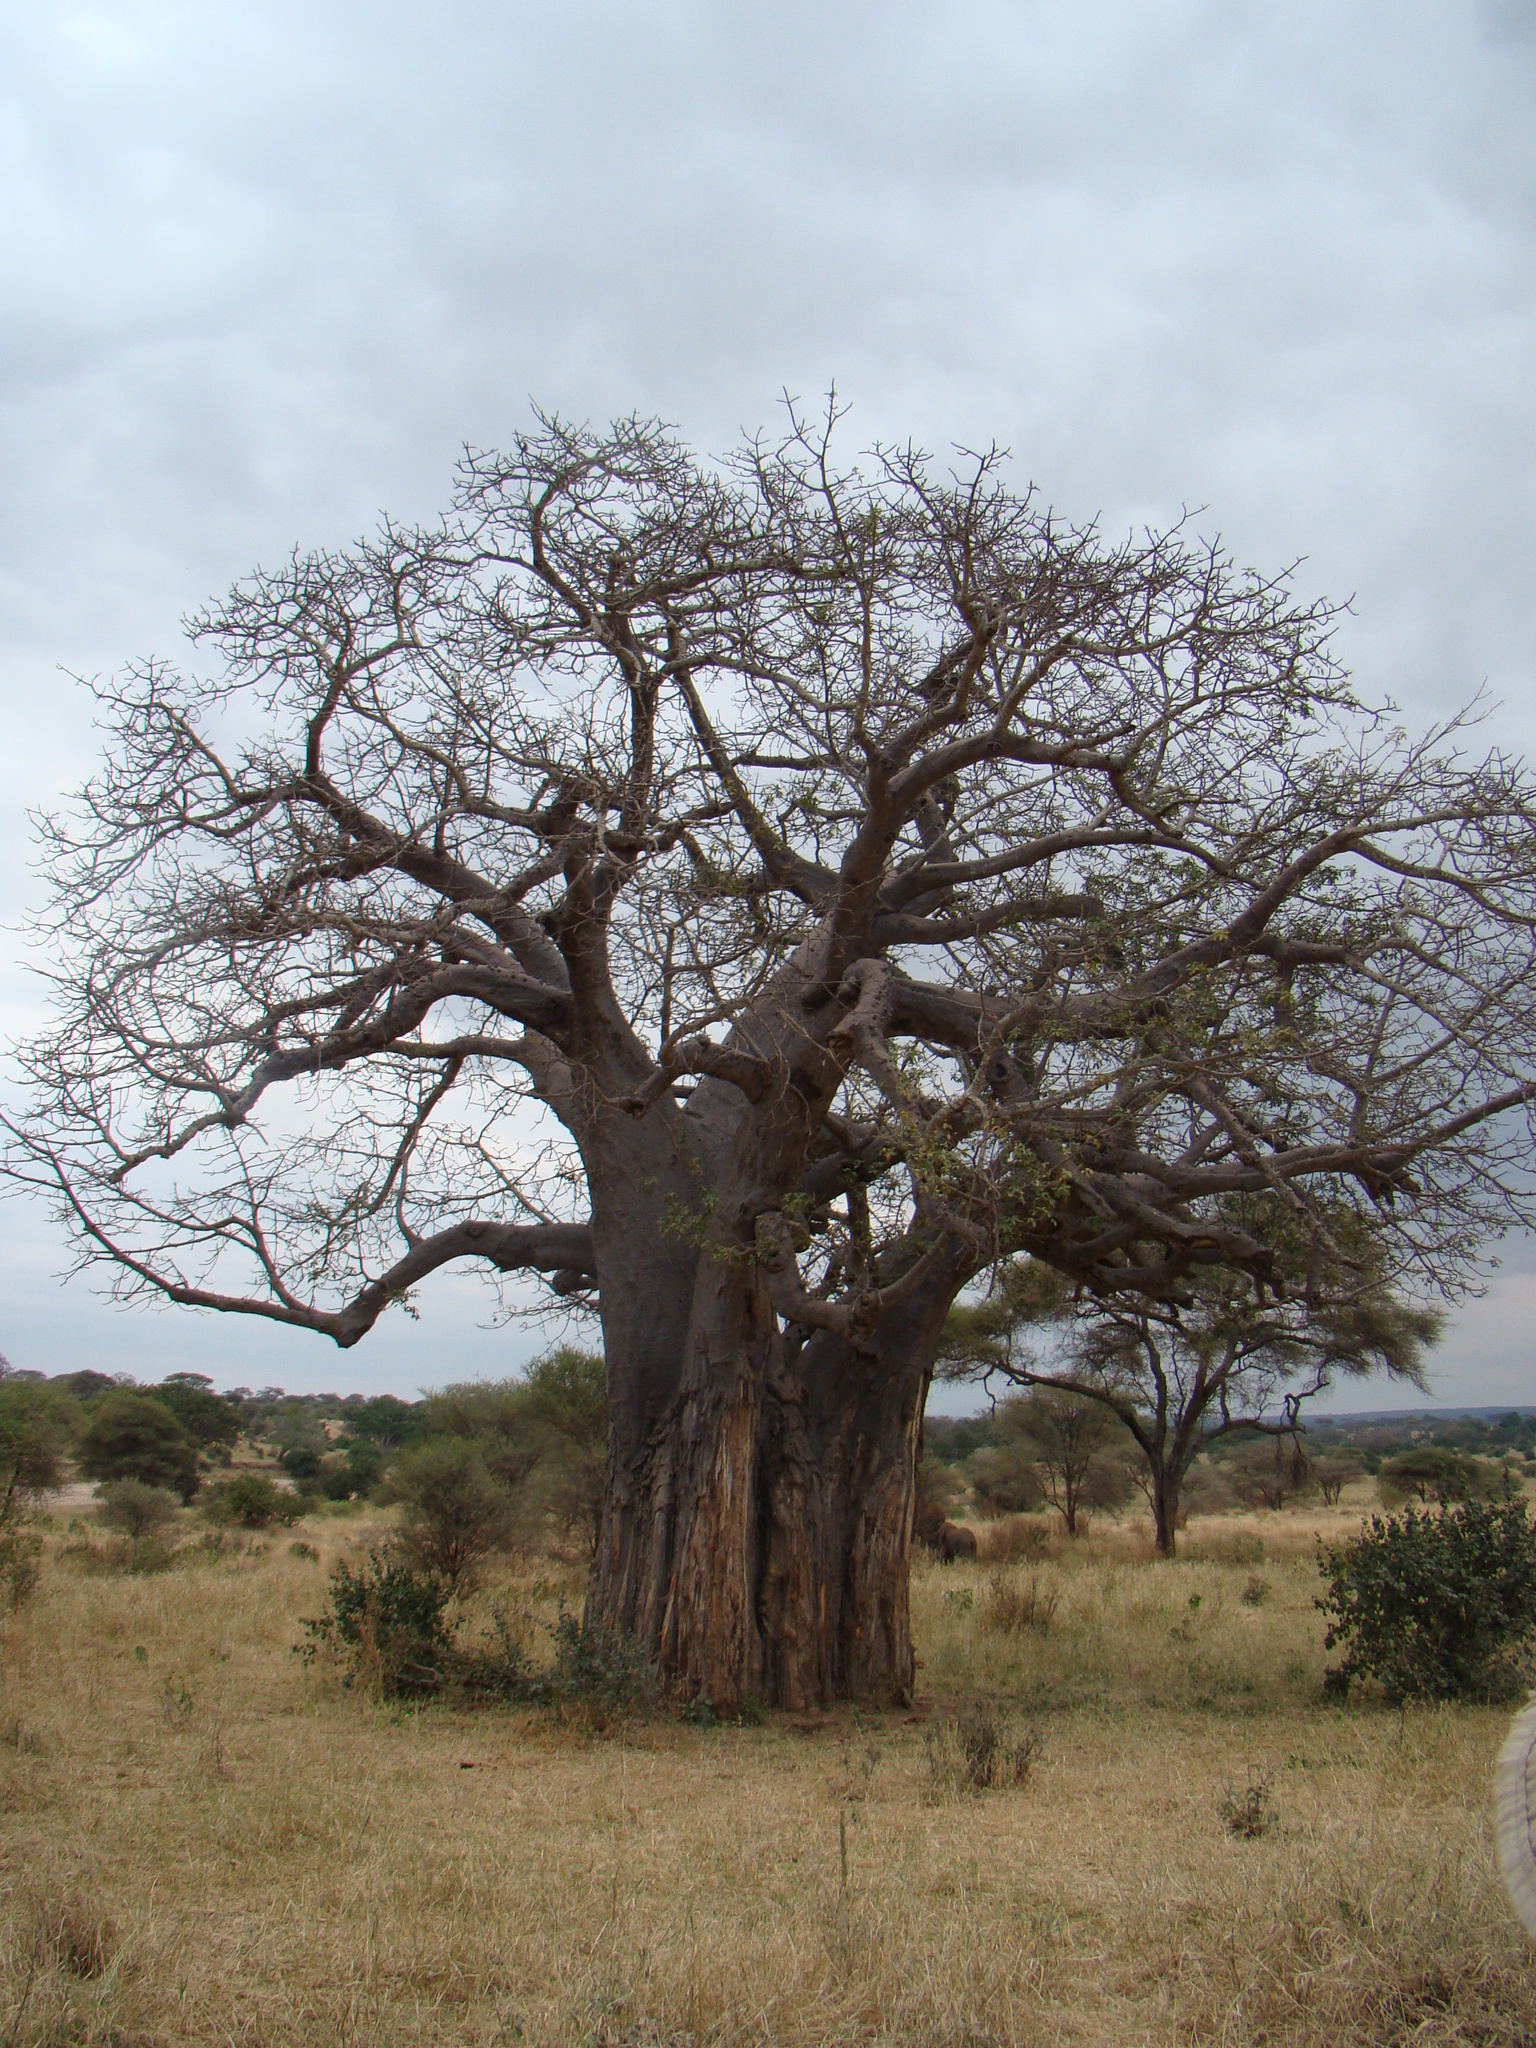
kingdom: Plantae
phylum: Tracheophyta
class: Magnoliopsida
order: Malvales
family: Malvaceae
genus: Adansonia
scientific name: Adansonia digitata
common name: Dead-rat-tree
